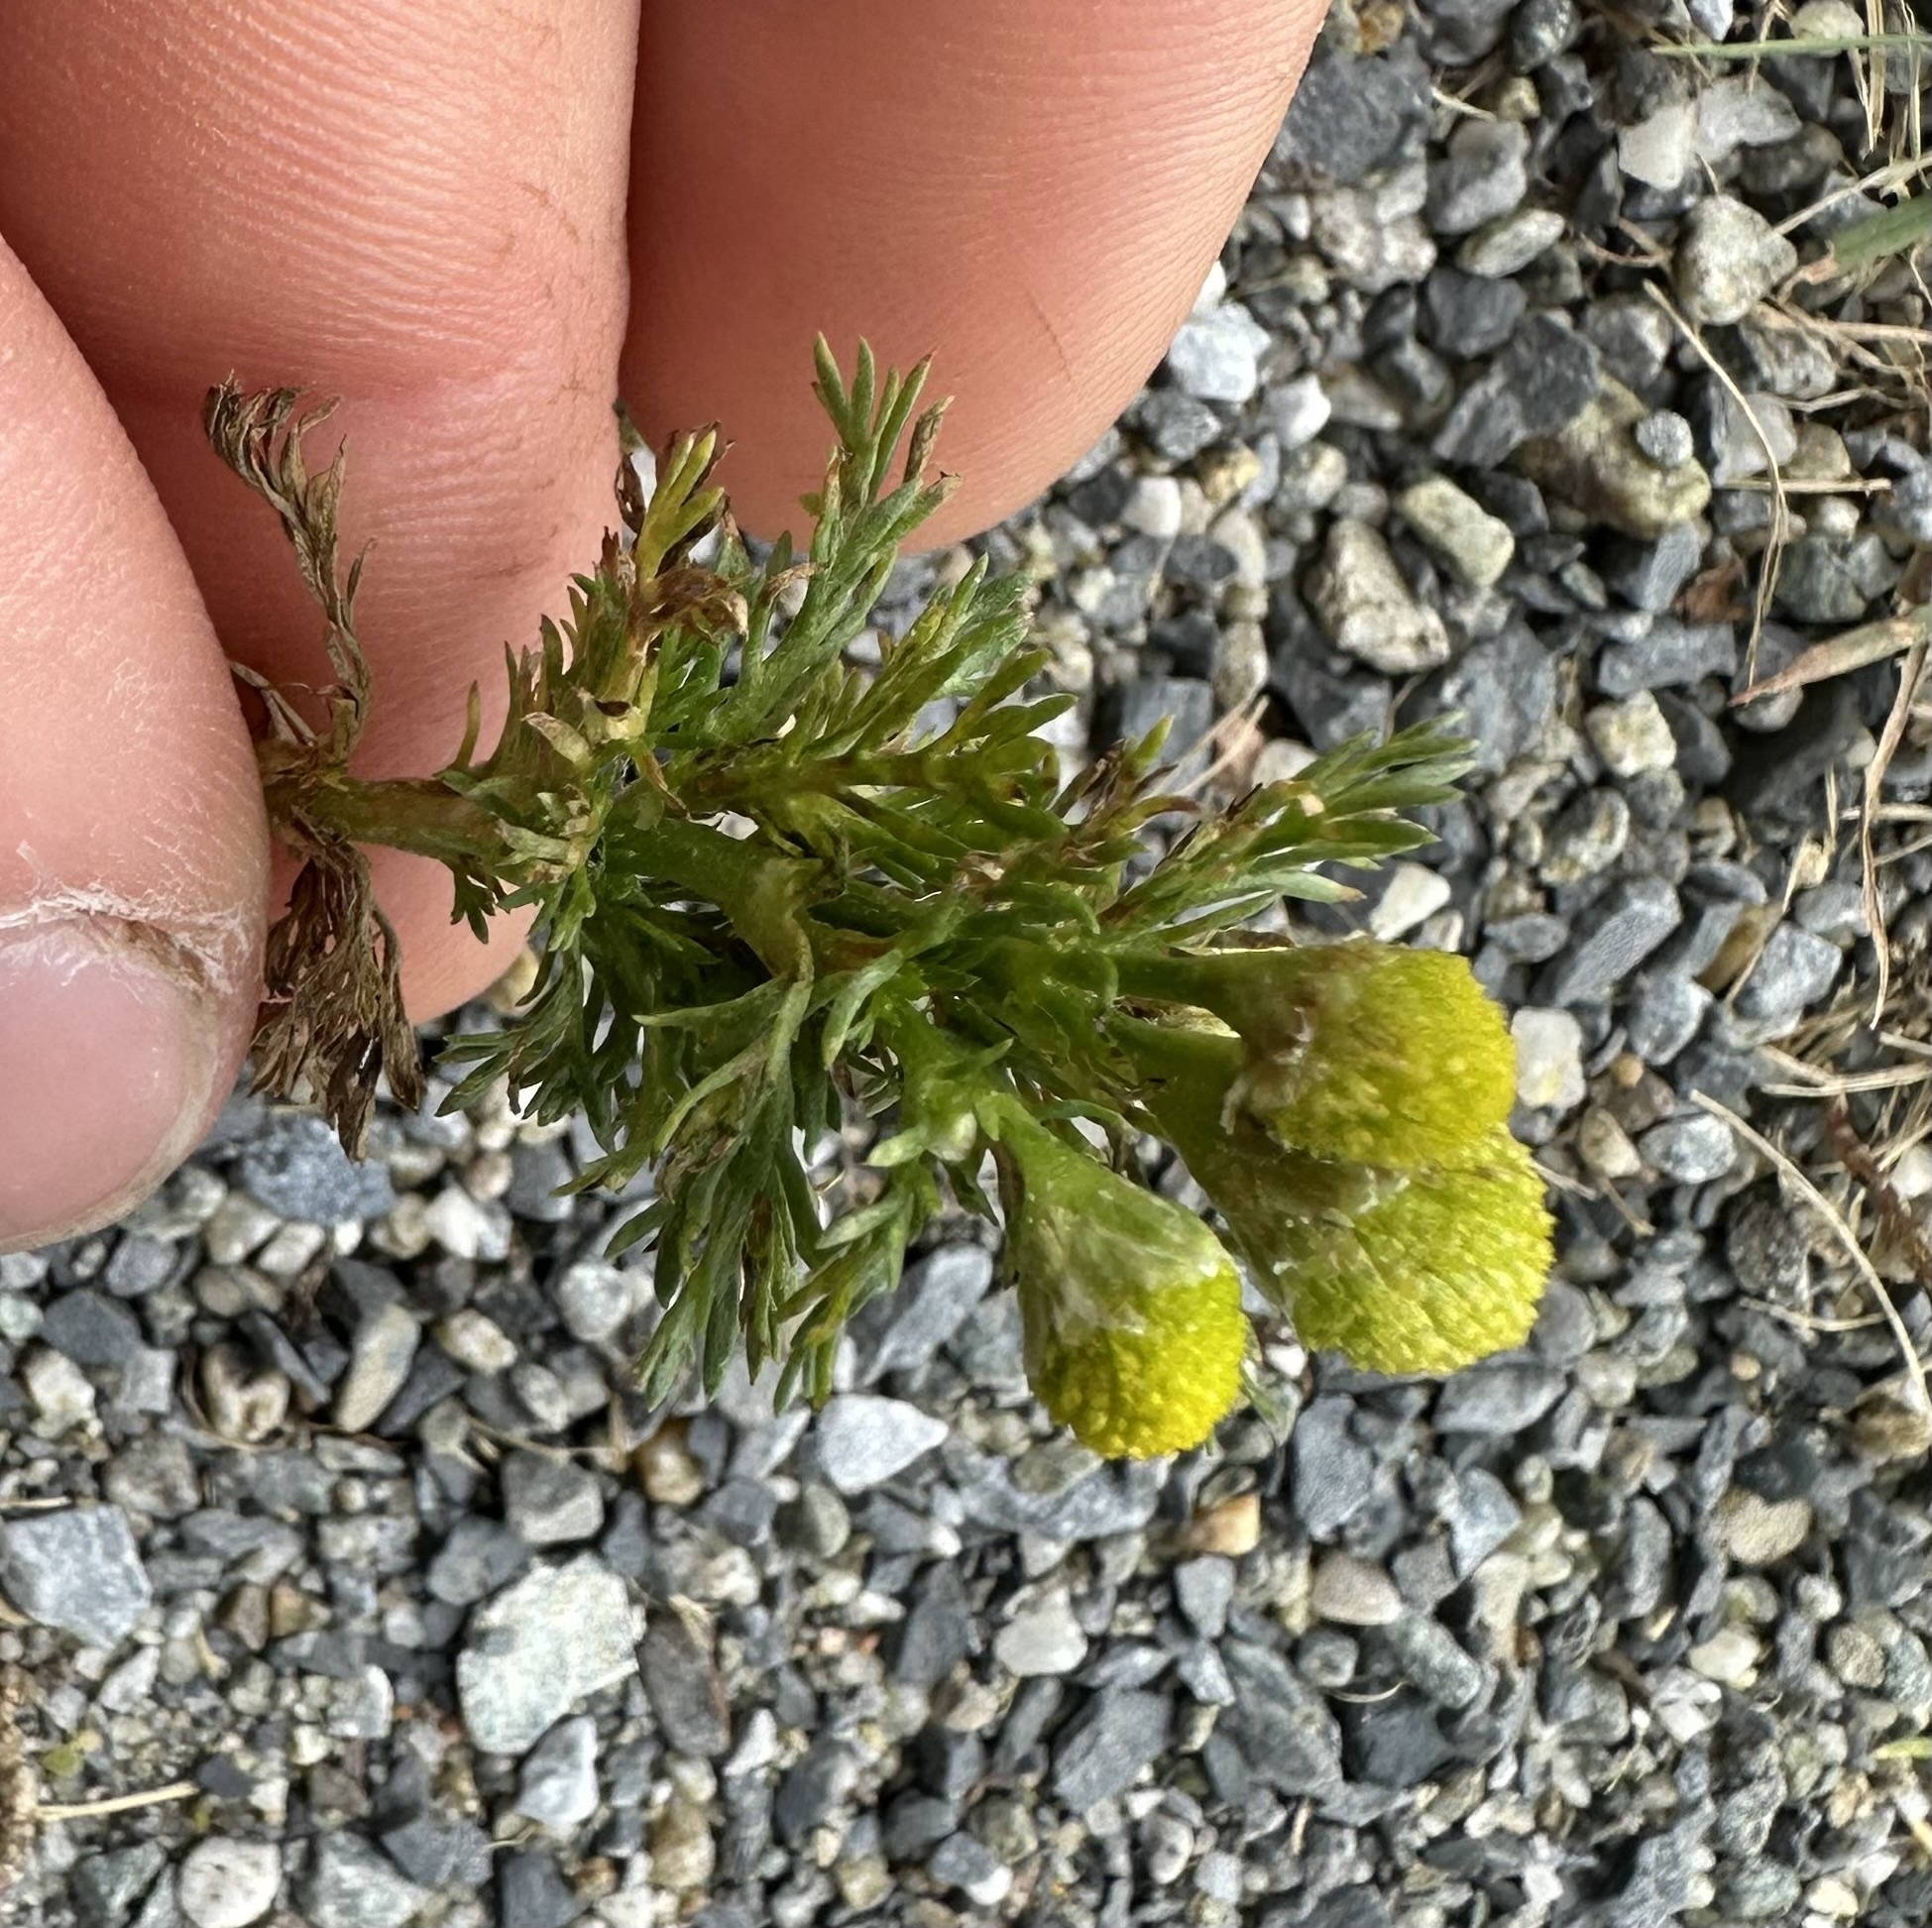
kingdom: Plantae
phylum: Tracheophyta
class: Magnoliopsida
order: Asterales
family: Asteraceae
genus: Matricaria
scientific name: Matricaria discoidea
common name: Disc mayweed
